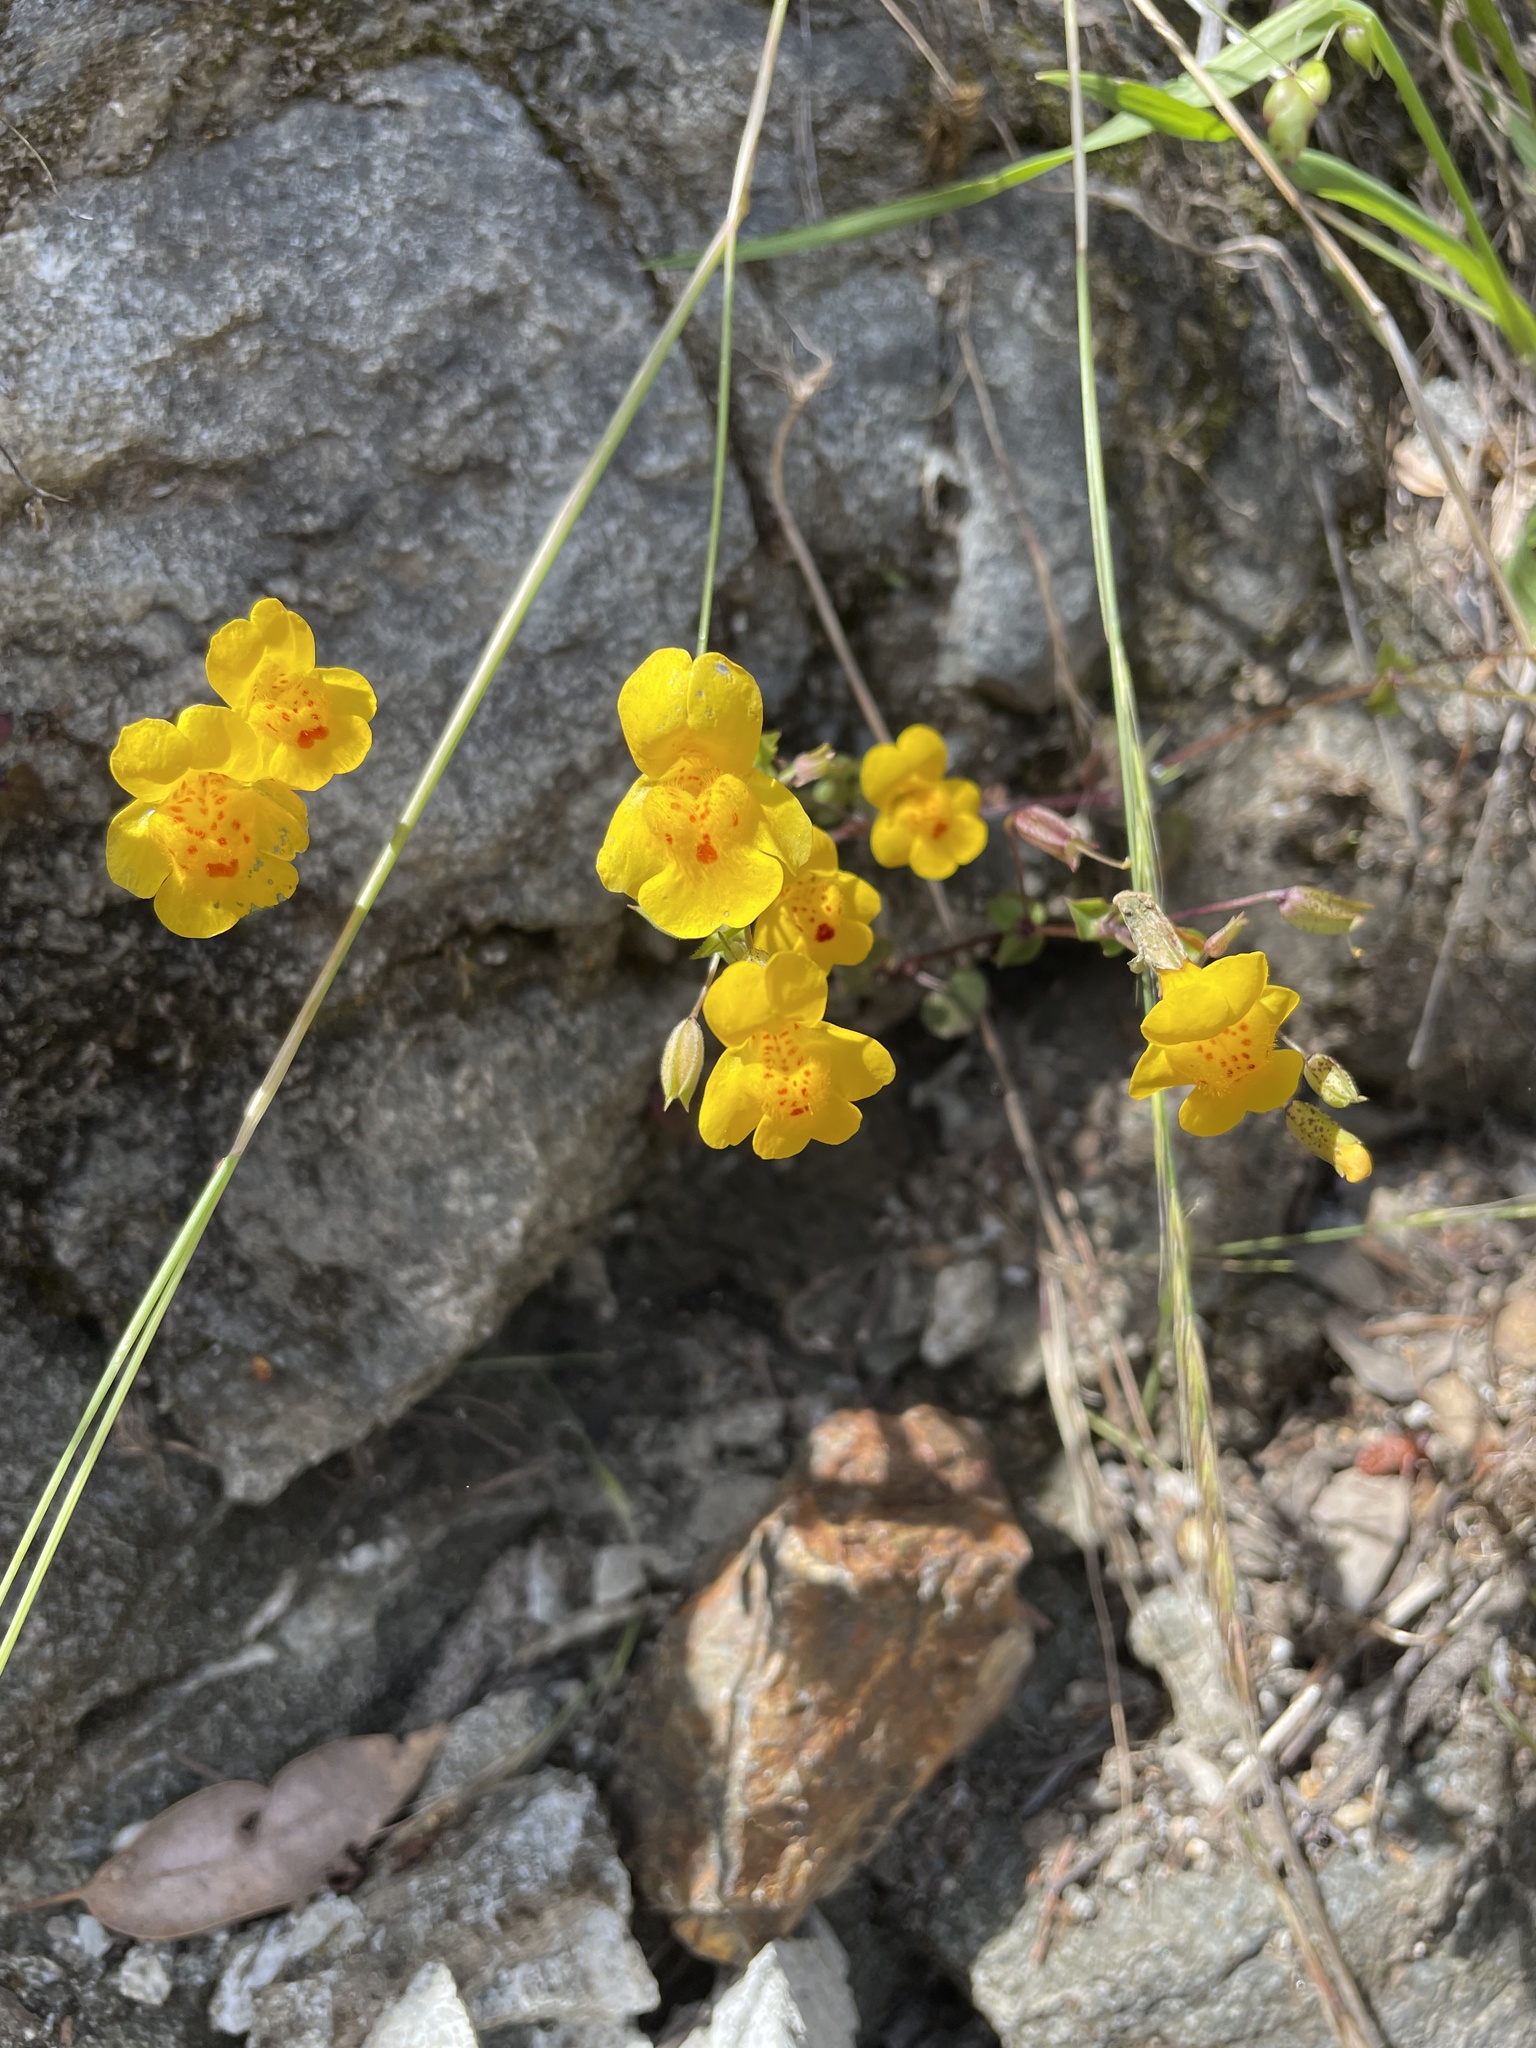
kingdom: Plantae
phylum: Tracheophyta
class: Magnoliopsida
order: Lamiales
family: Phrymaceae
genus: Erythranthe
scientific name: Erythranthe microphylla
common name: Bentham's monkeyflower
